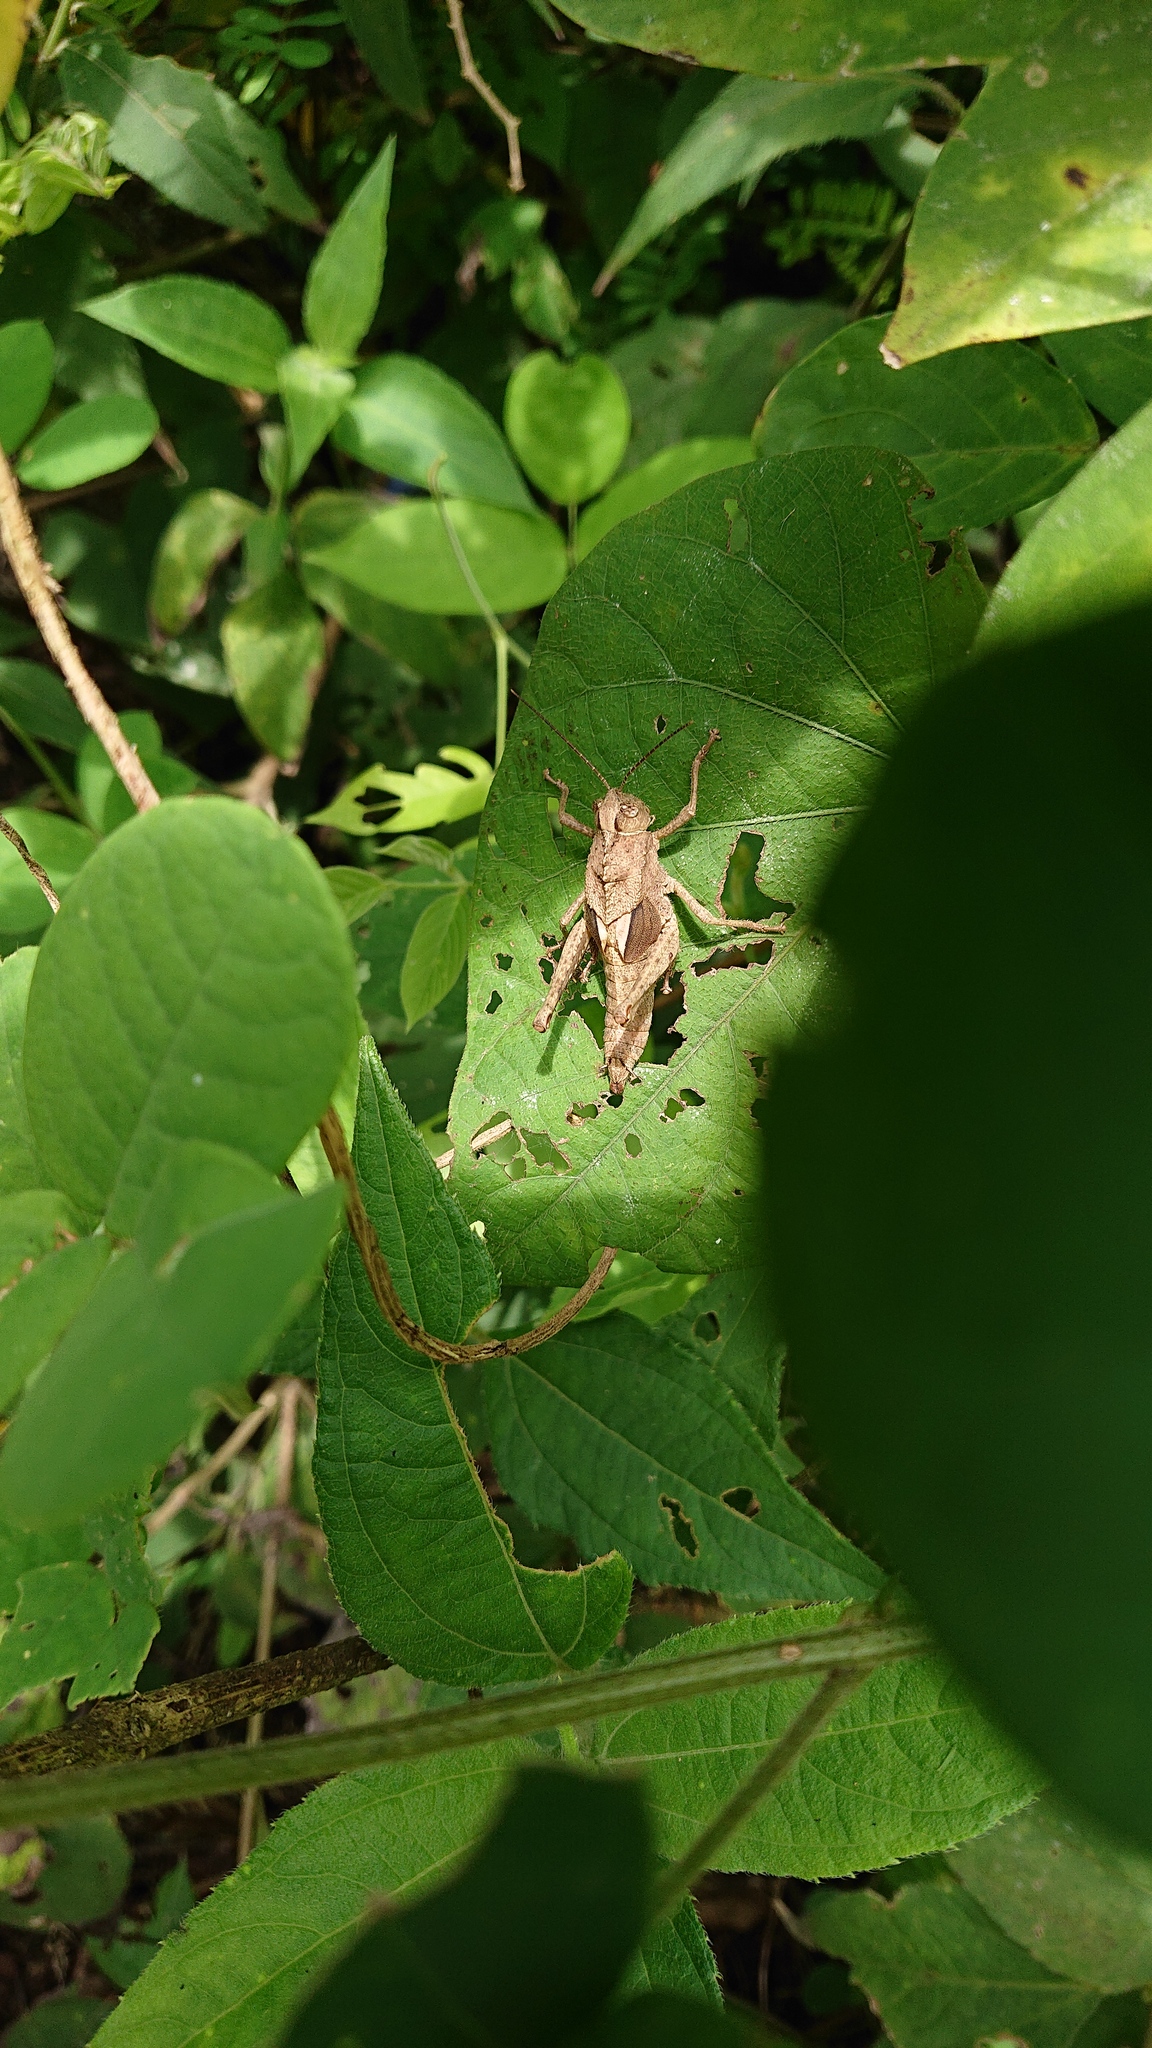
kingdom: Animalia
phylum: Arthropoda
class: Insecta
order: Orthoptera
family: Romaleidae
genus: Agriacris
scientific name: Agriacris aequatoriana
